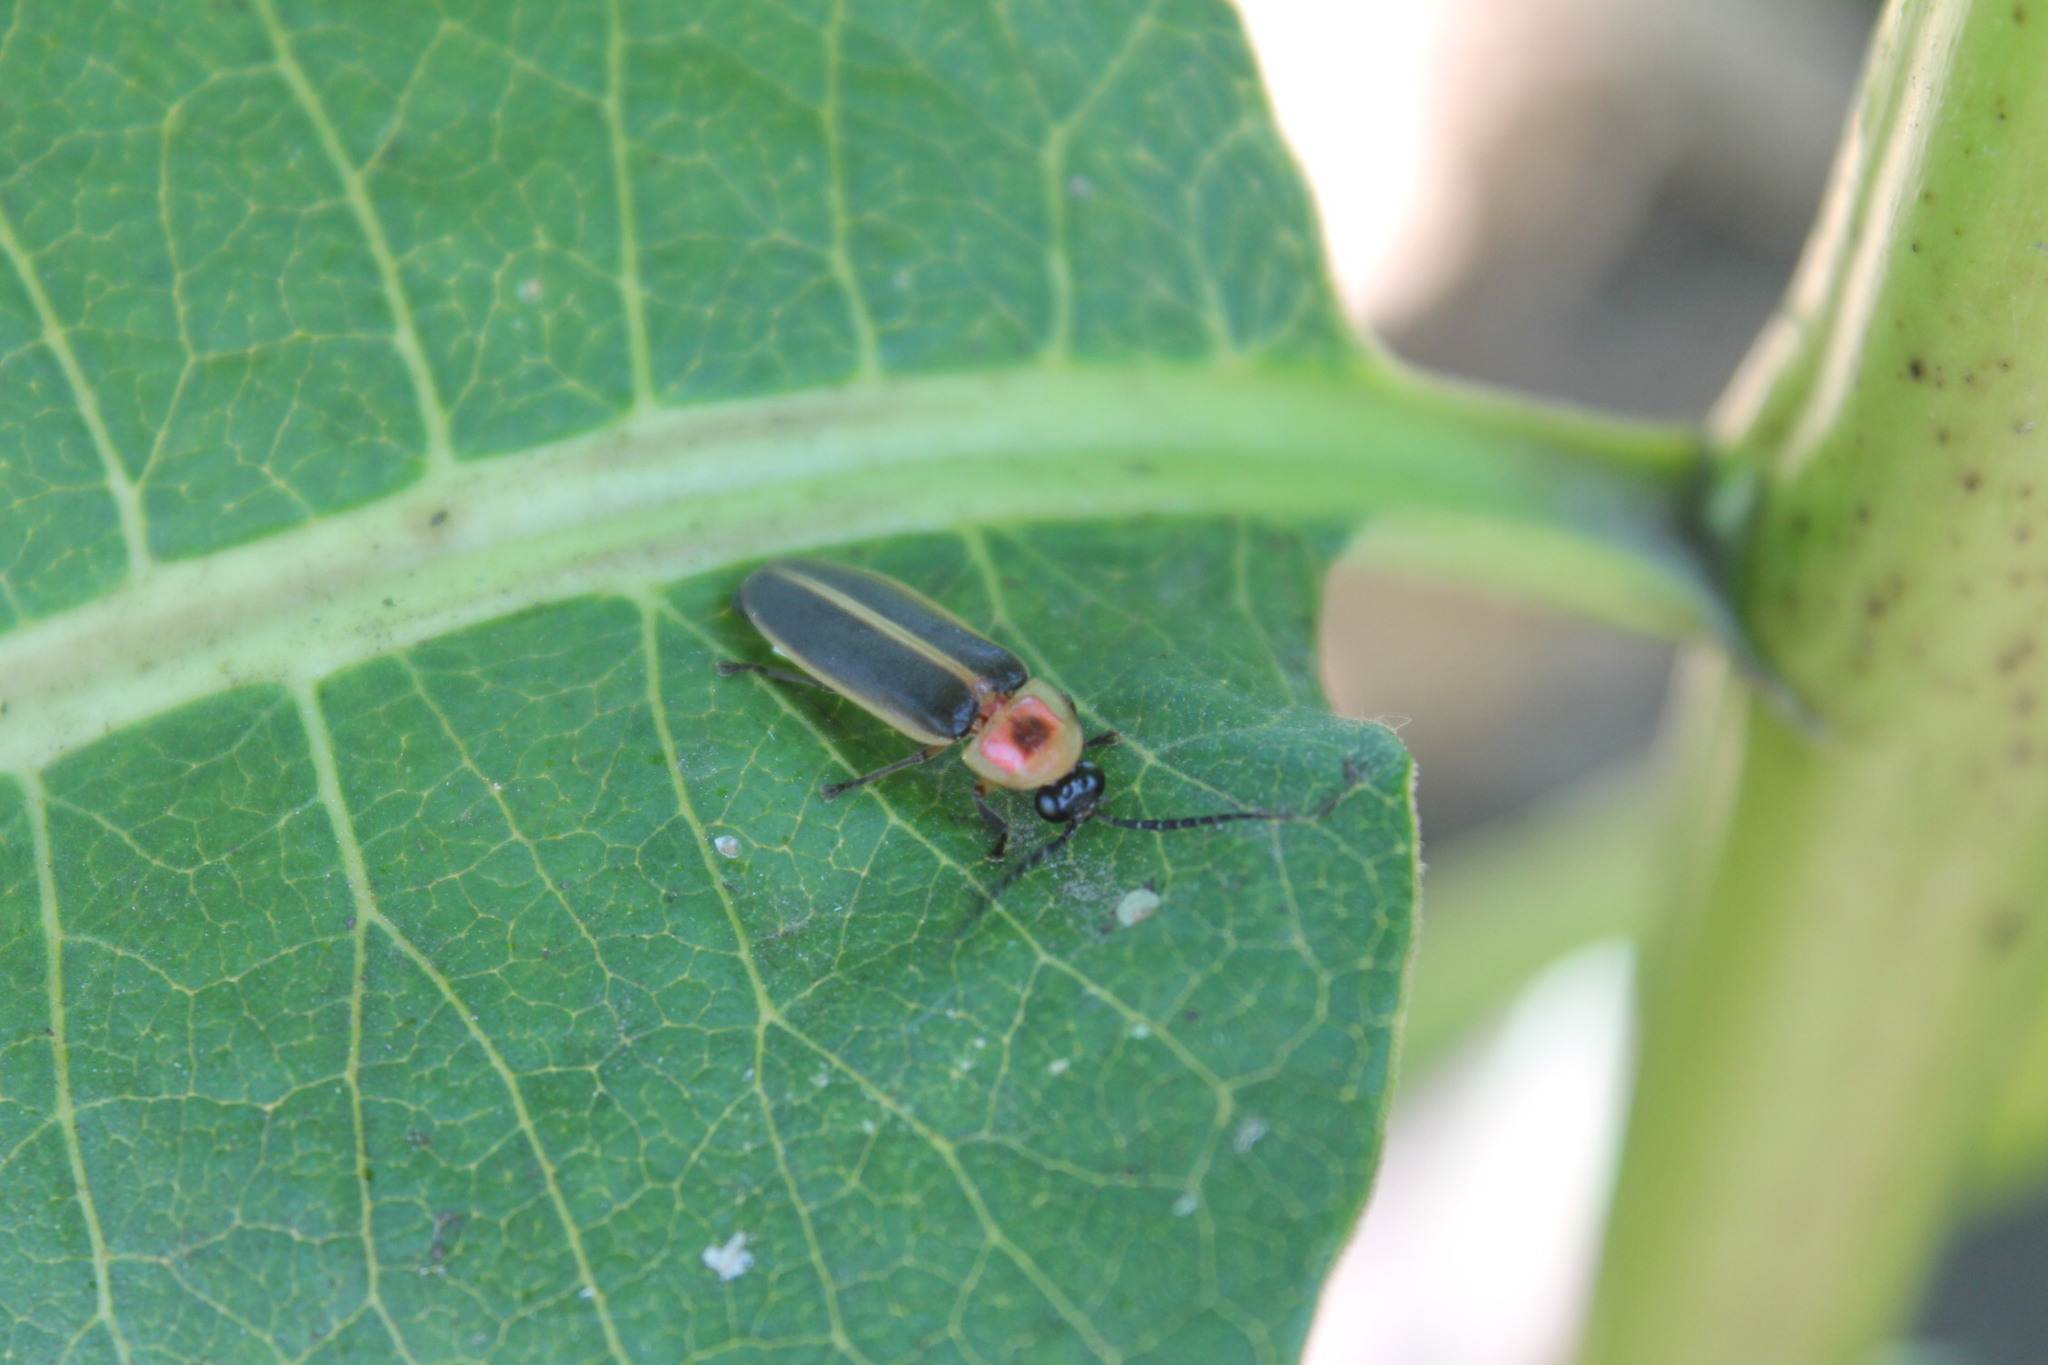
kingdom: Animalia
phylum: Arthropoda
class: Insecta
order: Coleoptera
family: Lampyridae
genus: Photinus
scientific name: Photinus pyralis
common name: Big dipper firefly
